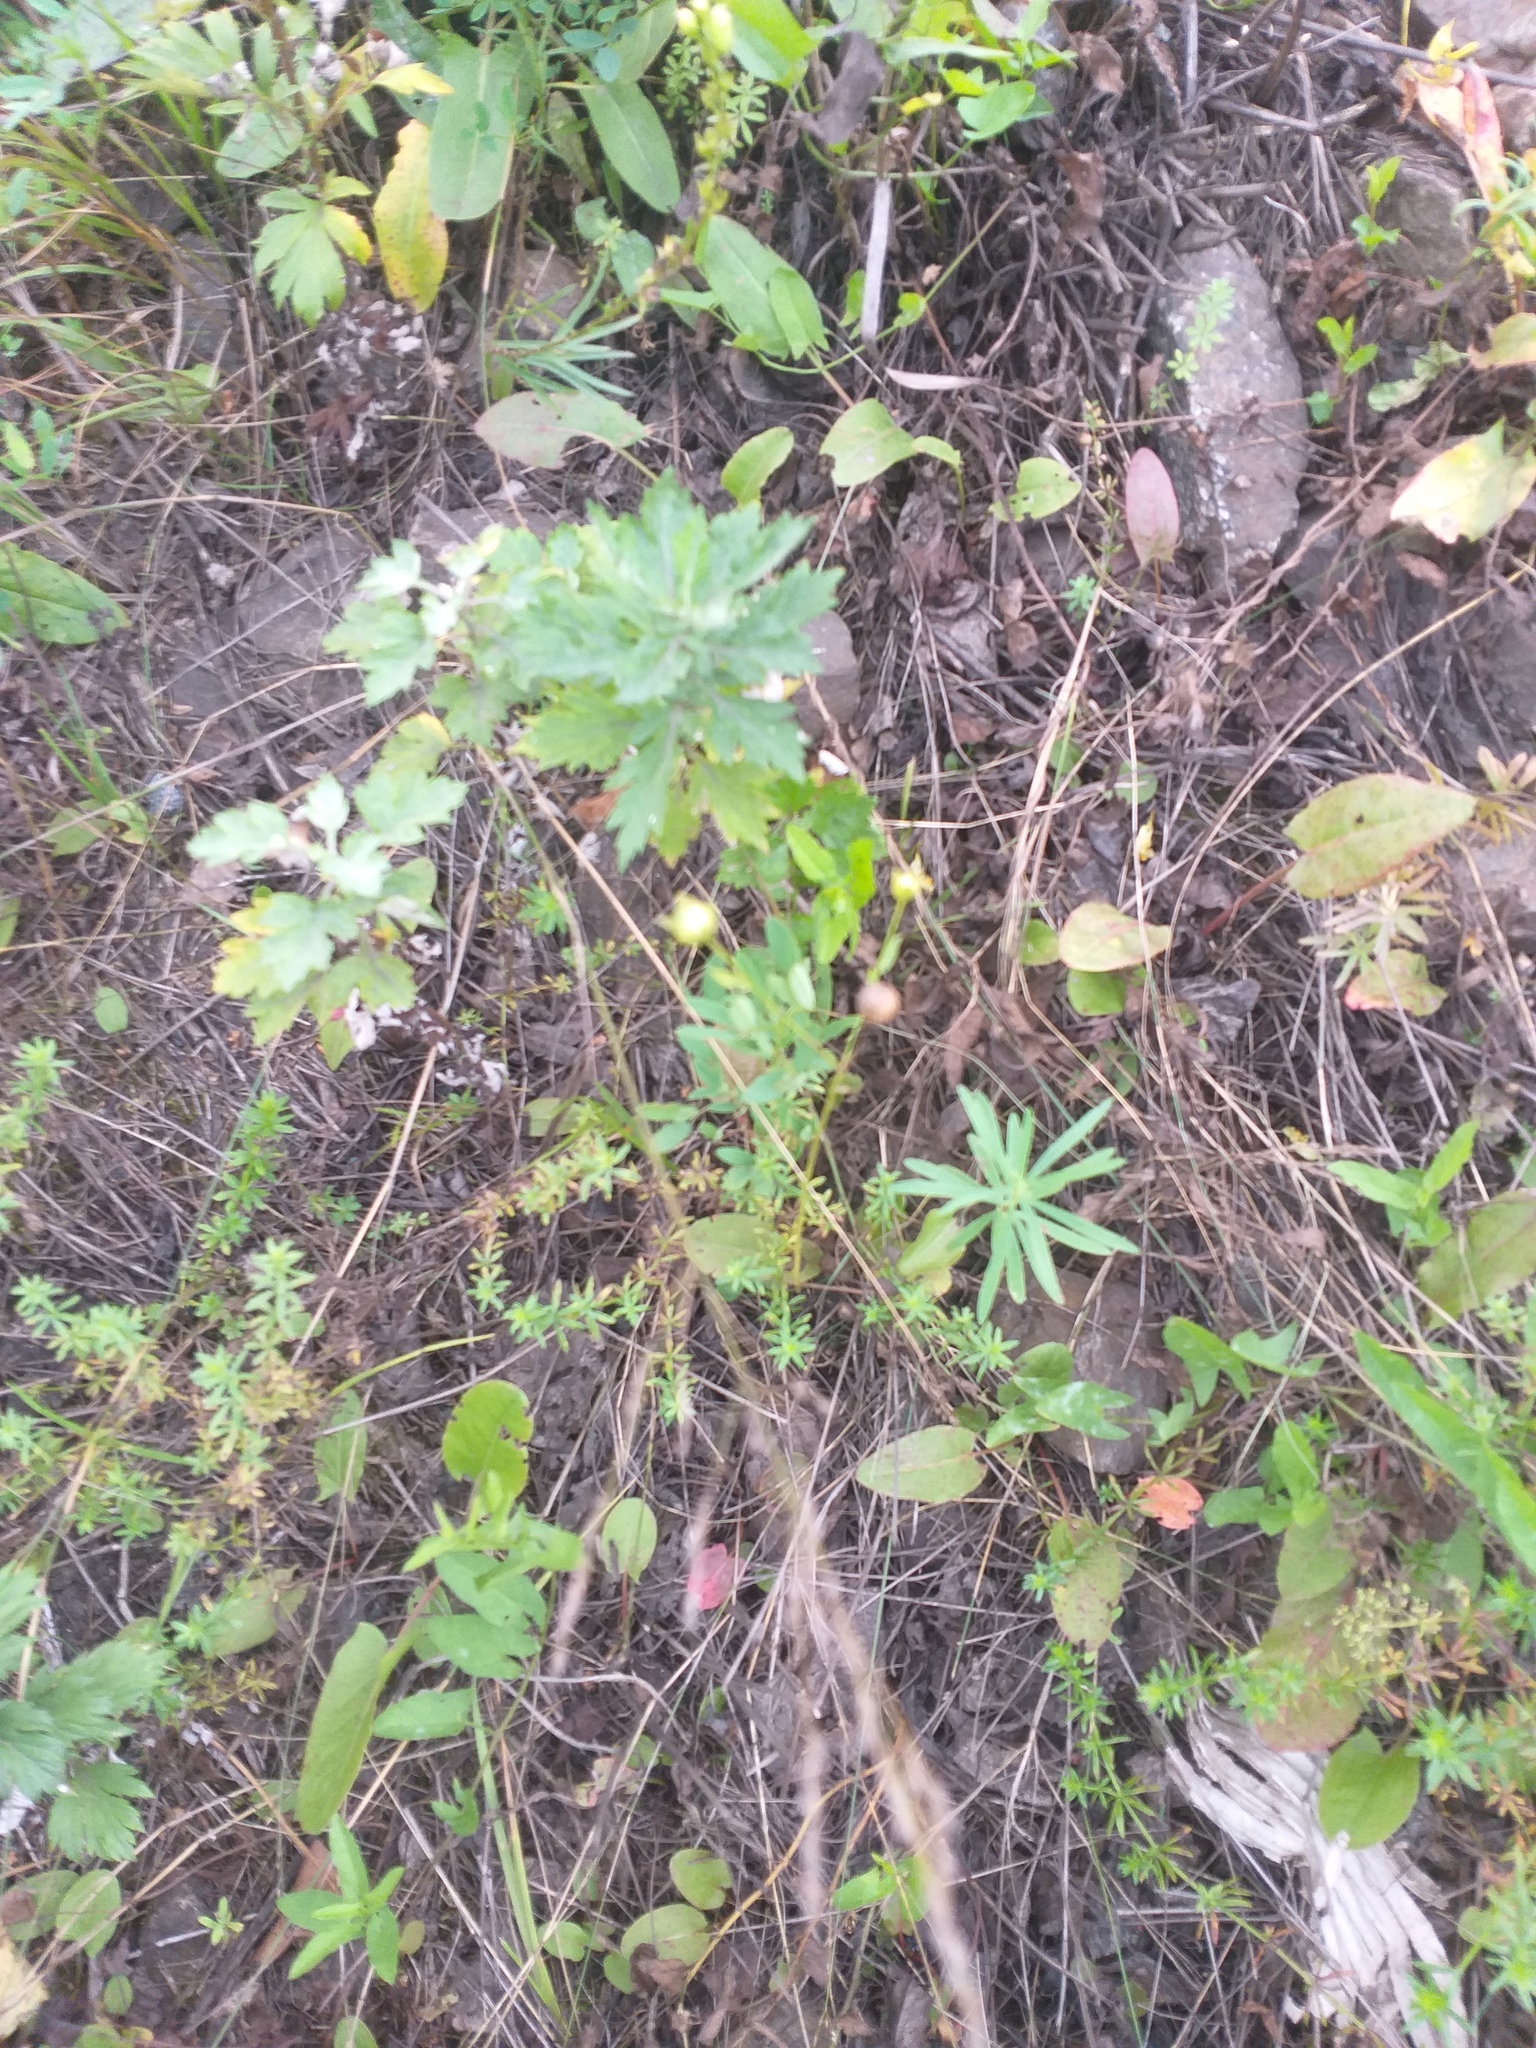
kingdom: Plantae
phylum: Tracheophyta
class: Magnoliopsida
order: Malpighiales
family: Linaceae
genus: Linum
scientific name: Linum usitatissimum
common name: Flax
